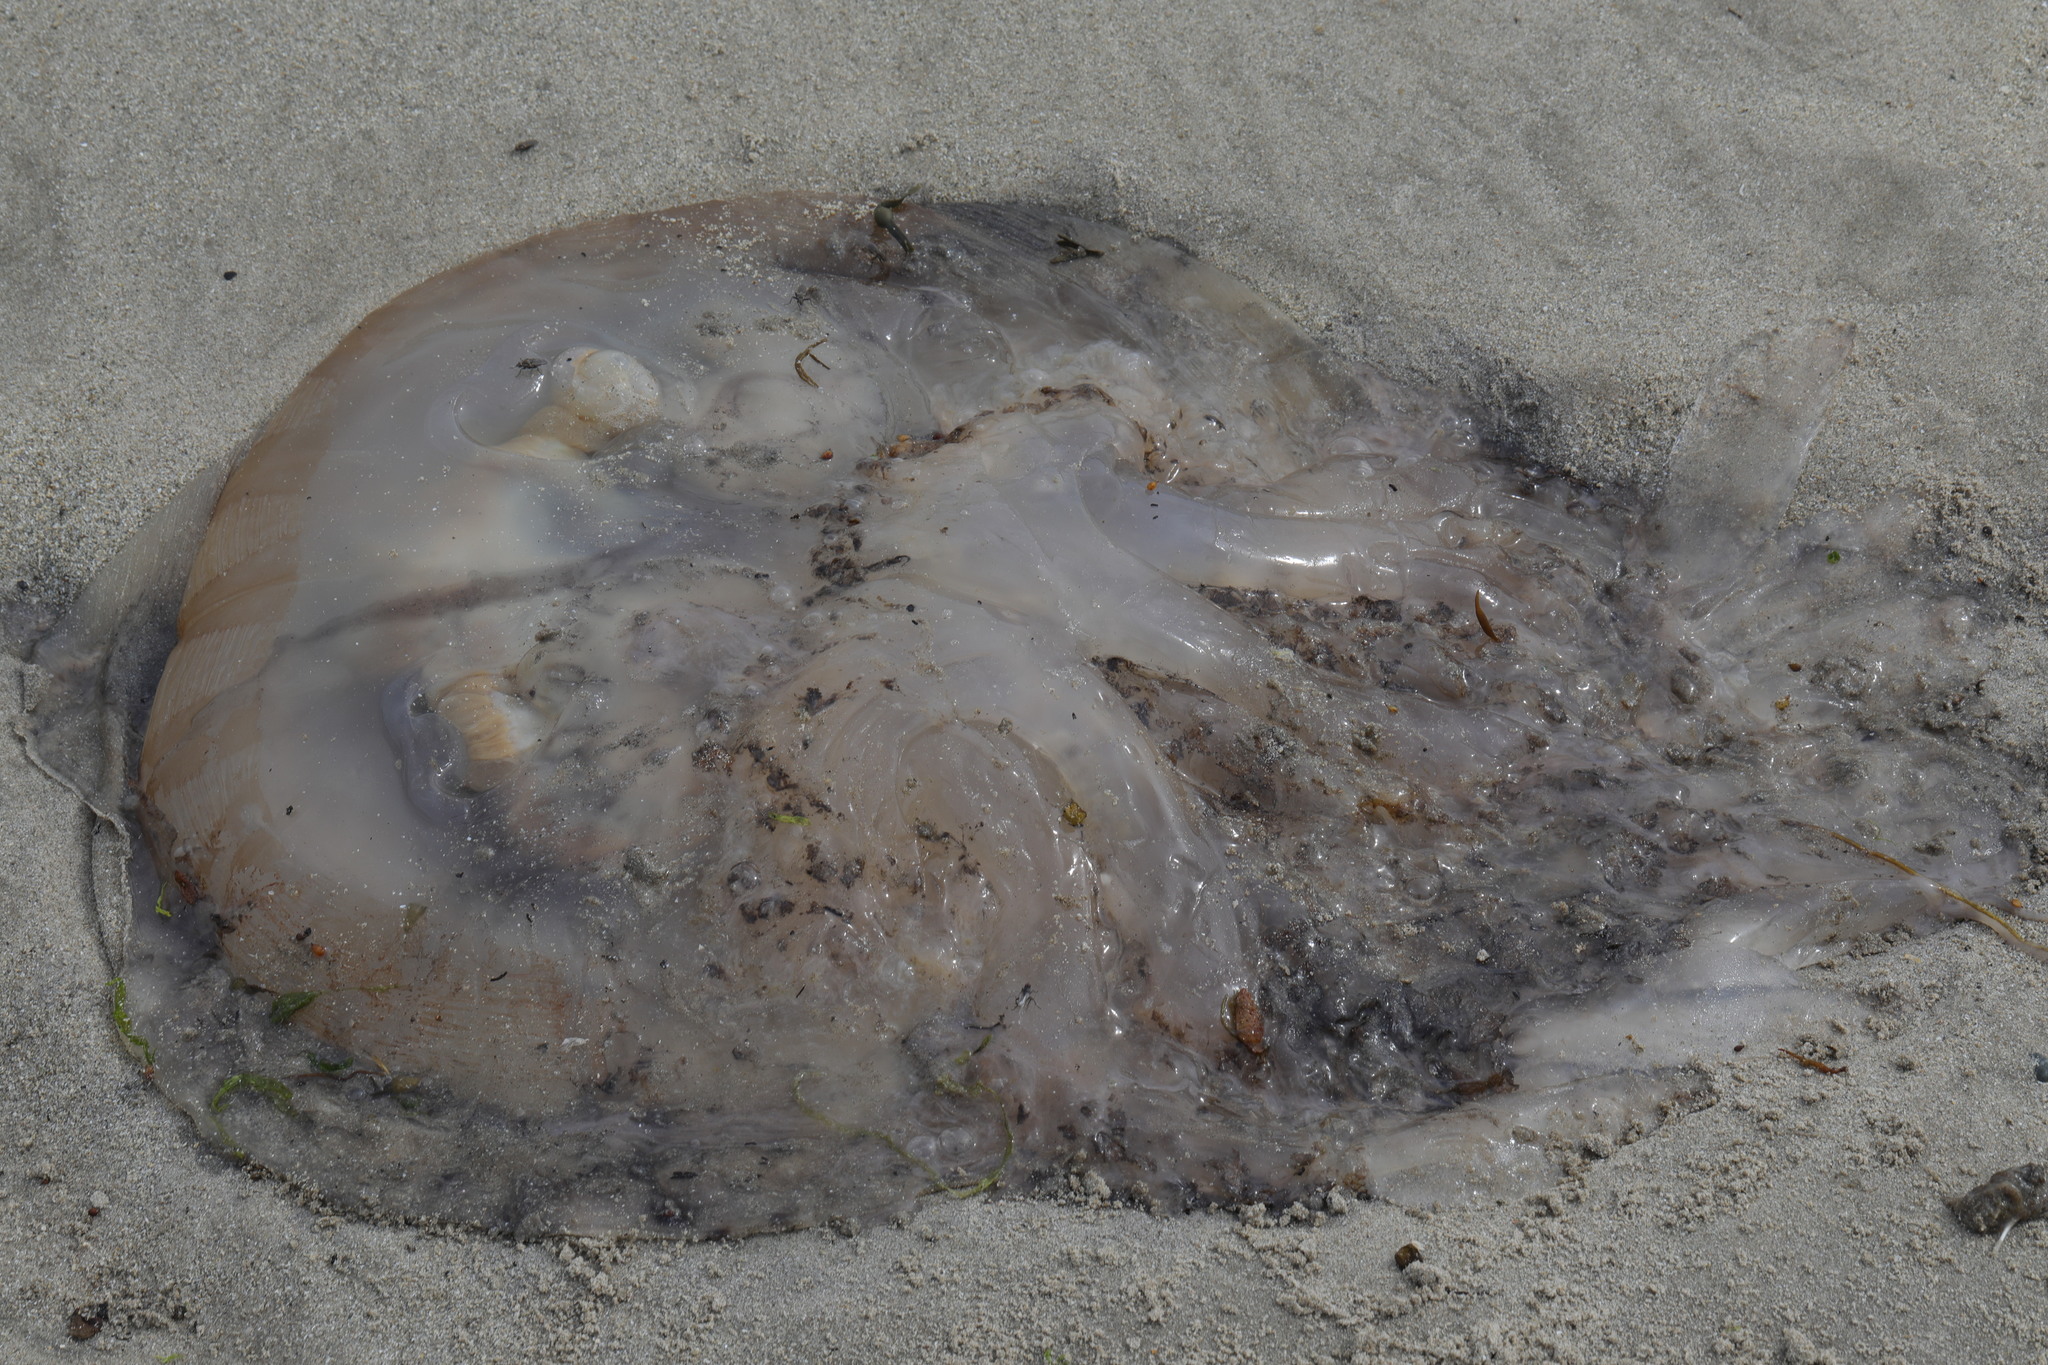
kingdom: Animalia
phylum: Cnidaria
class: Scyphozoa
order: Rhizostomeae
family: Rhizostomatidae
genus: Rhizostoma
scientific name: Rhizostoma octopus
